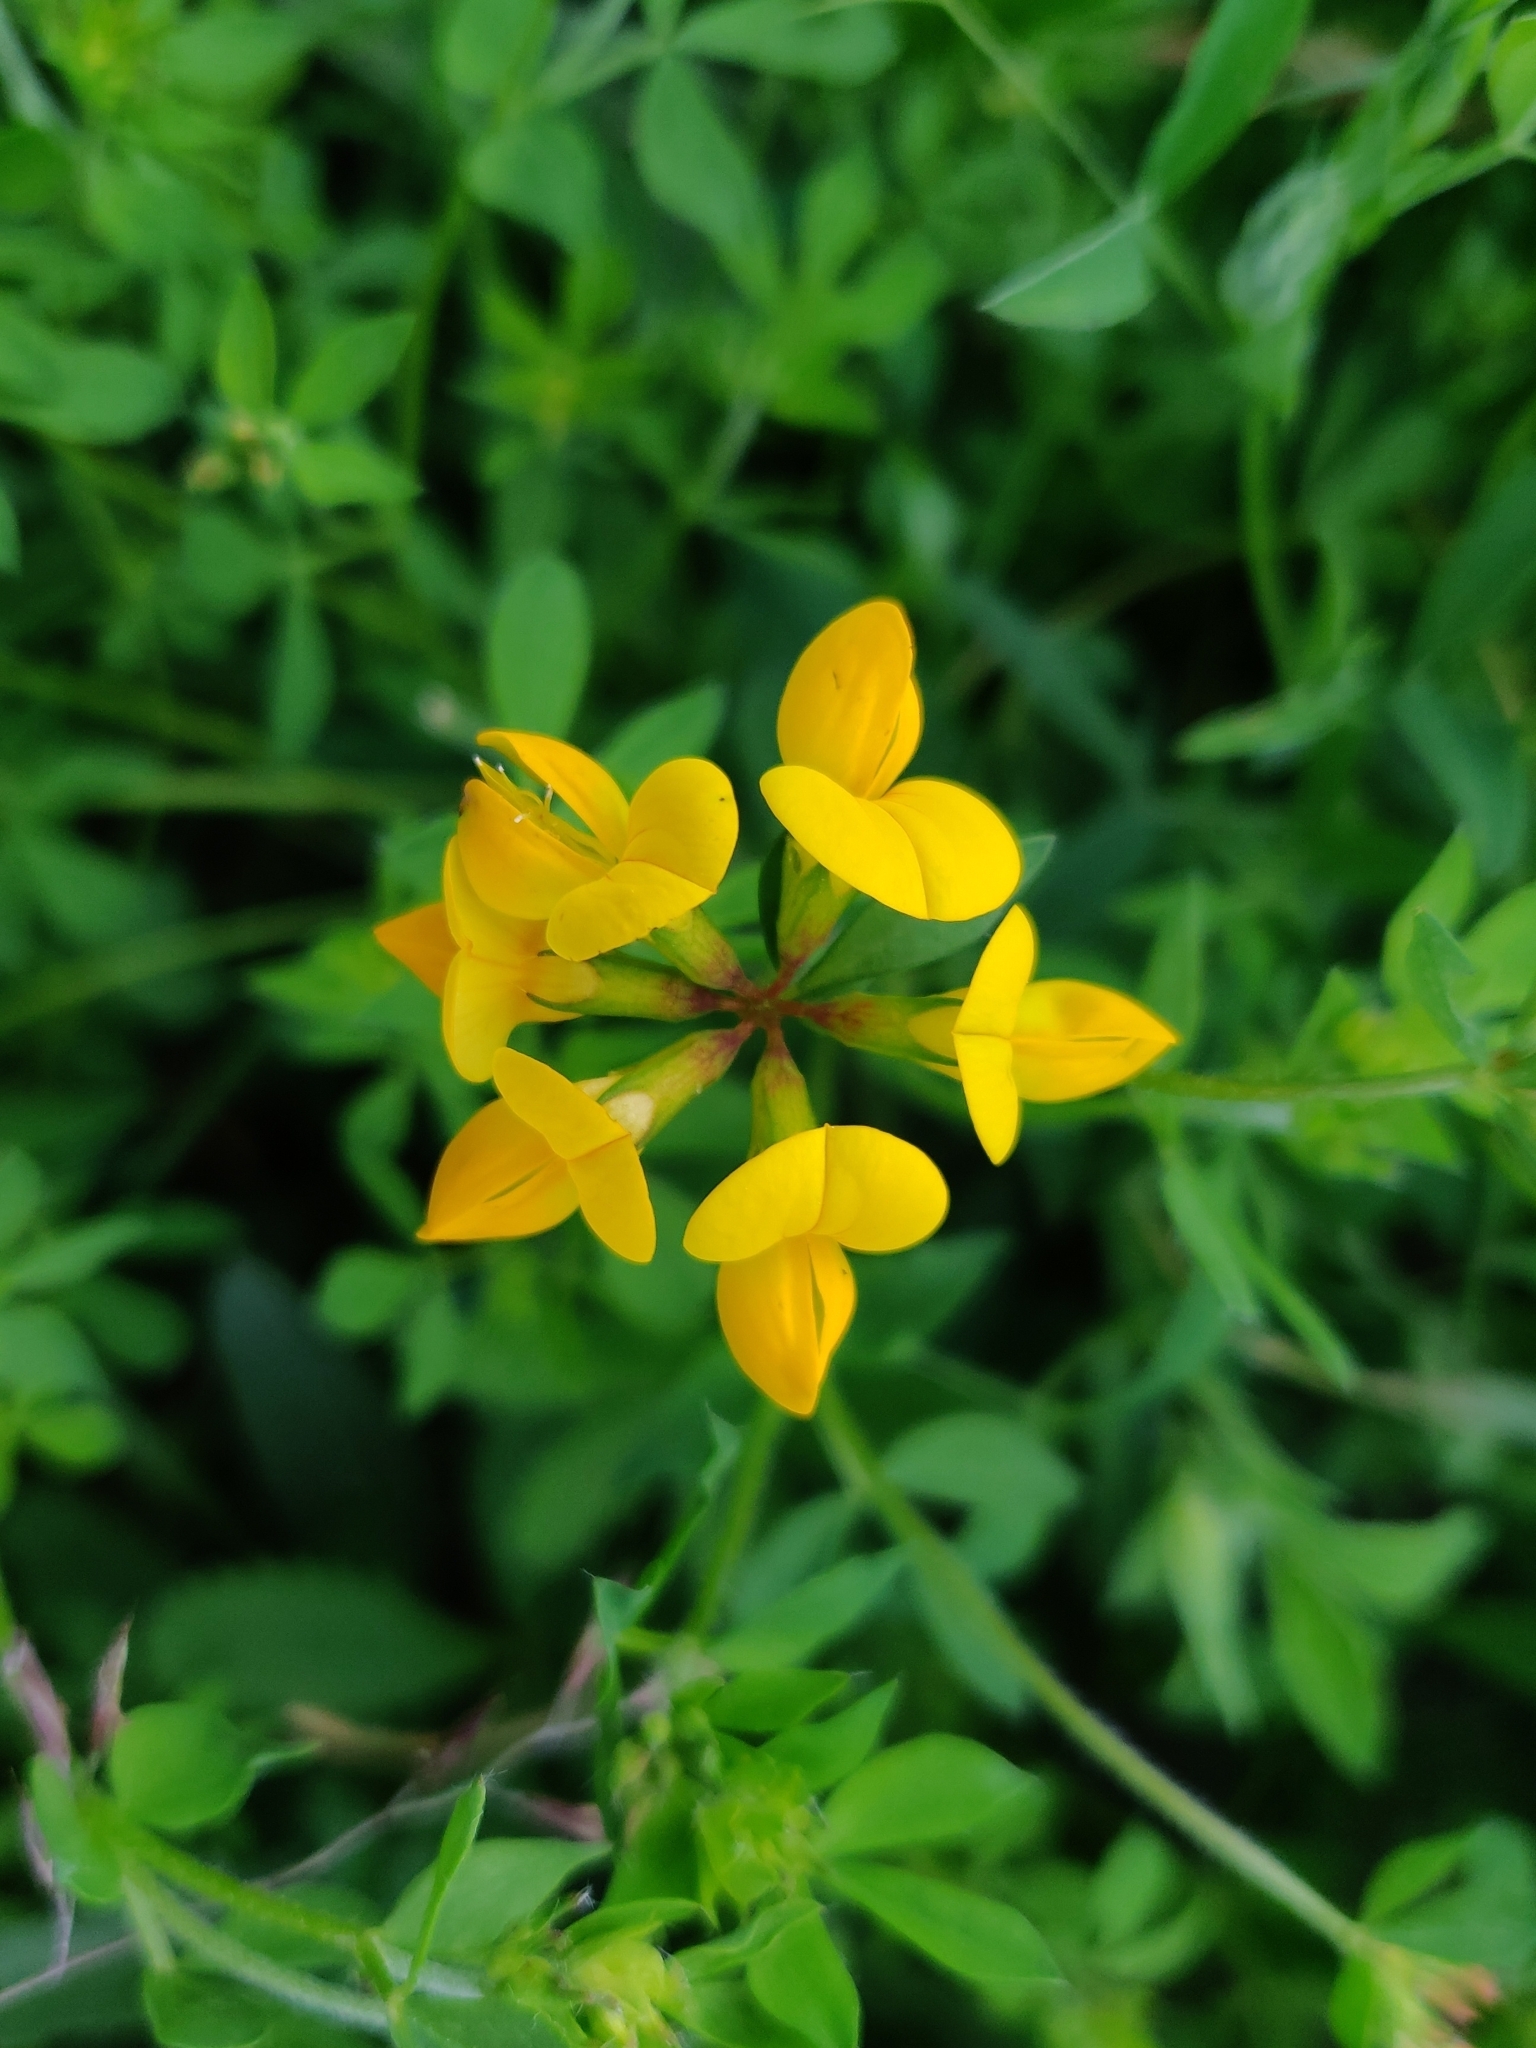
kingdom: Plantae
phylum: Tracheophyta
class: Magnoliopsida
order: Fabales
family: Fabaceae
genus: Lotus
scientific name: Lotus corniculatus
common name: Common bird's-foot-trefoil
